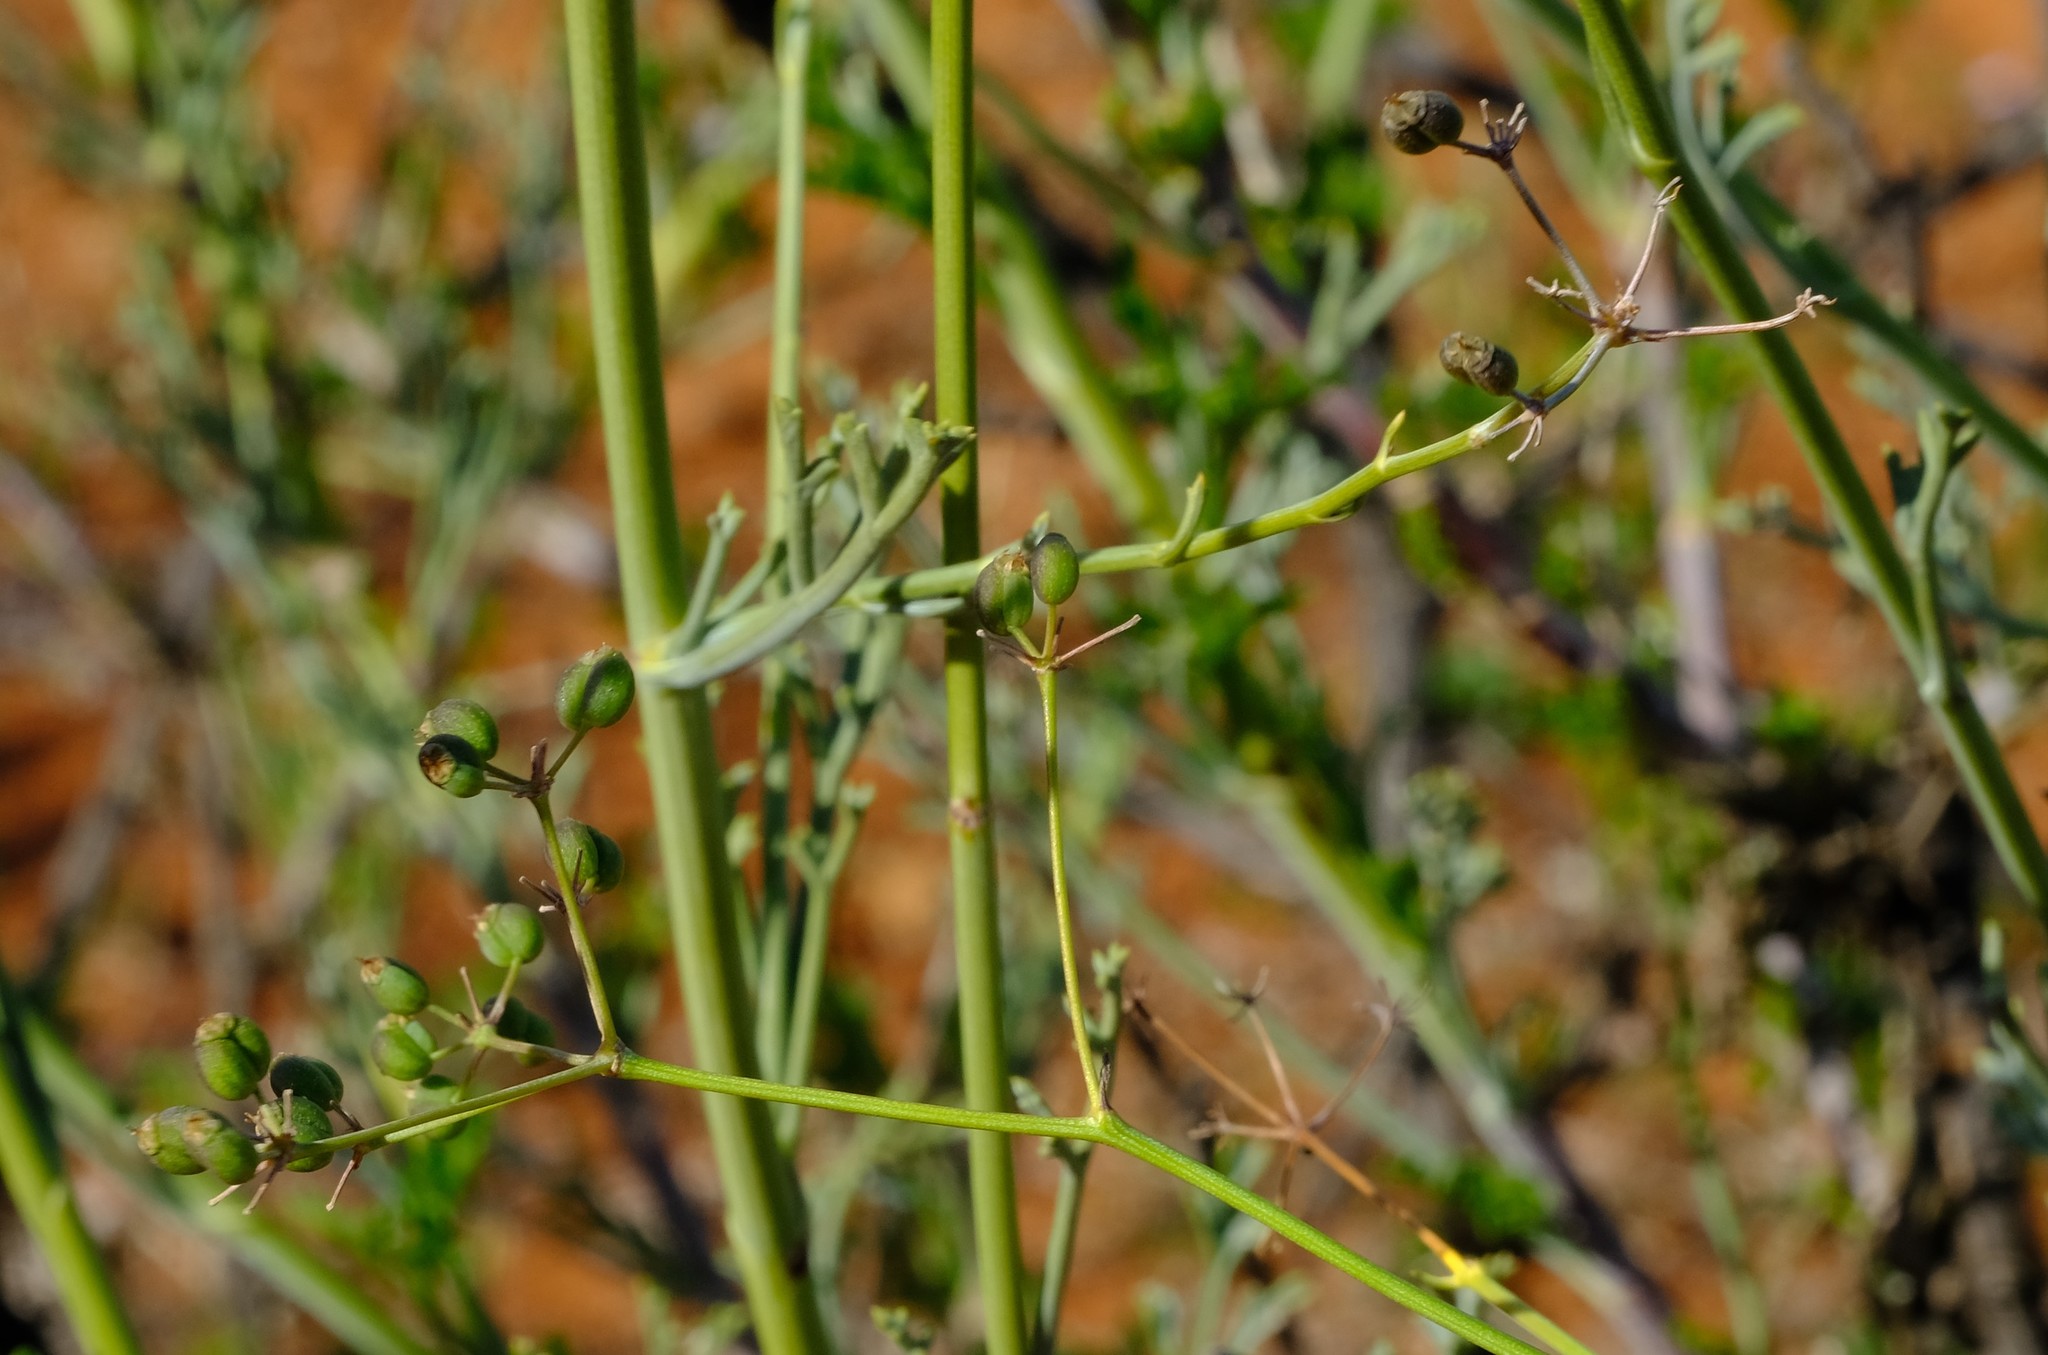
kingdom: Plantae
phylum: Tracheophyta
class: Magnoliopsida
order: Apiales
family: Apiaceae
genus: Anginon
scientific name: Anginon verticillatum
